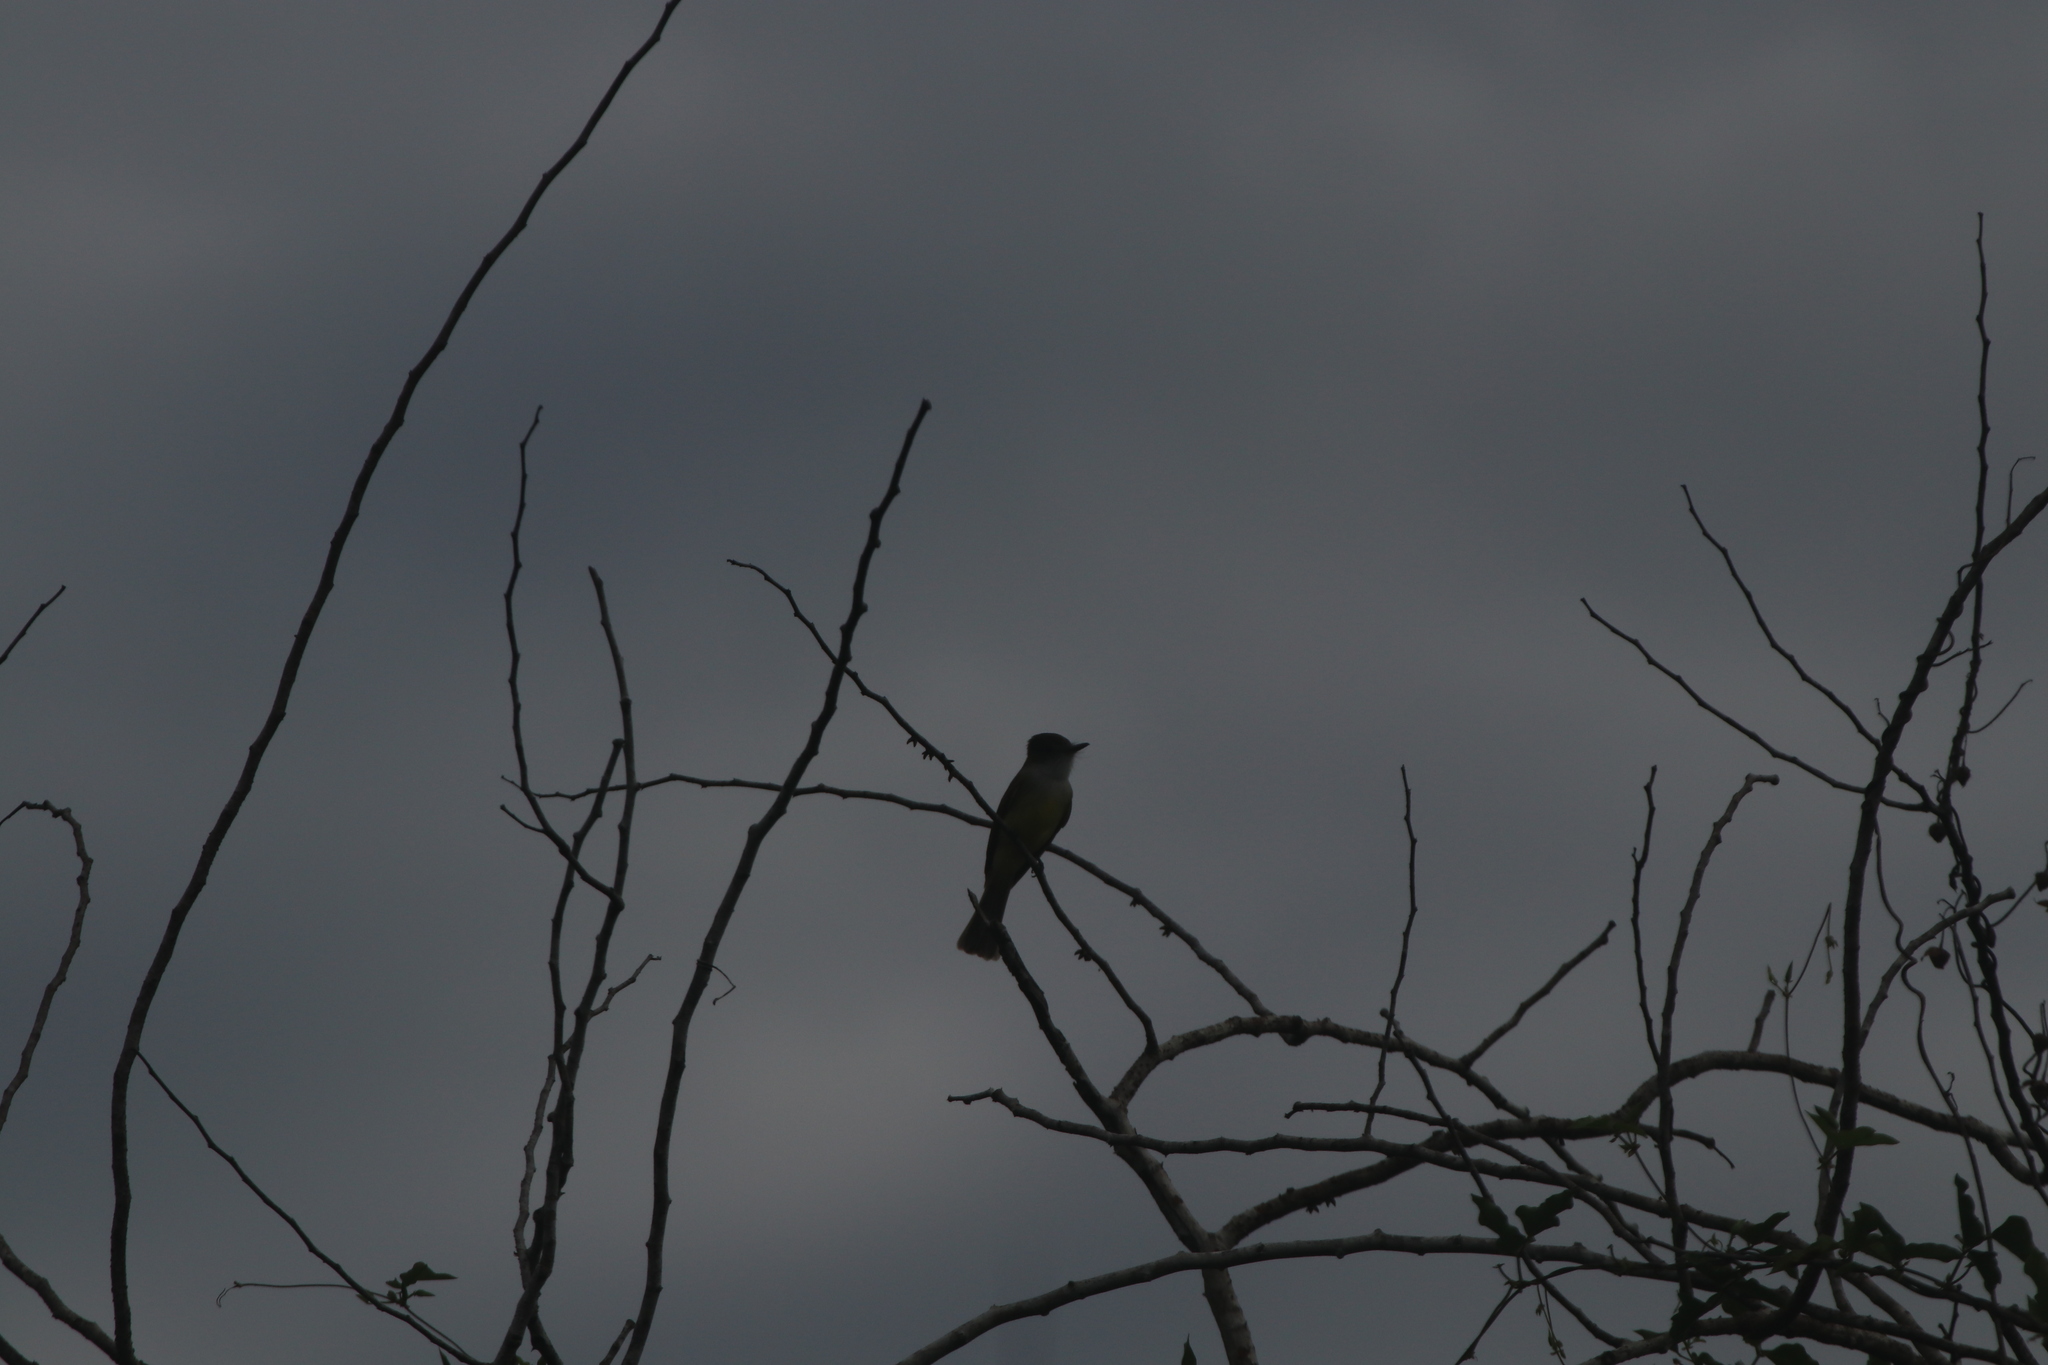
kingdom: Animalia
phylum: Chordata
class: Aves
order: Passeriformes
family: Tyrannidae
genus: Myiarchus
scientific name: Myiarchus tyrannulus
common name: Brown-crested flycatcher
